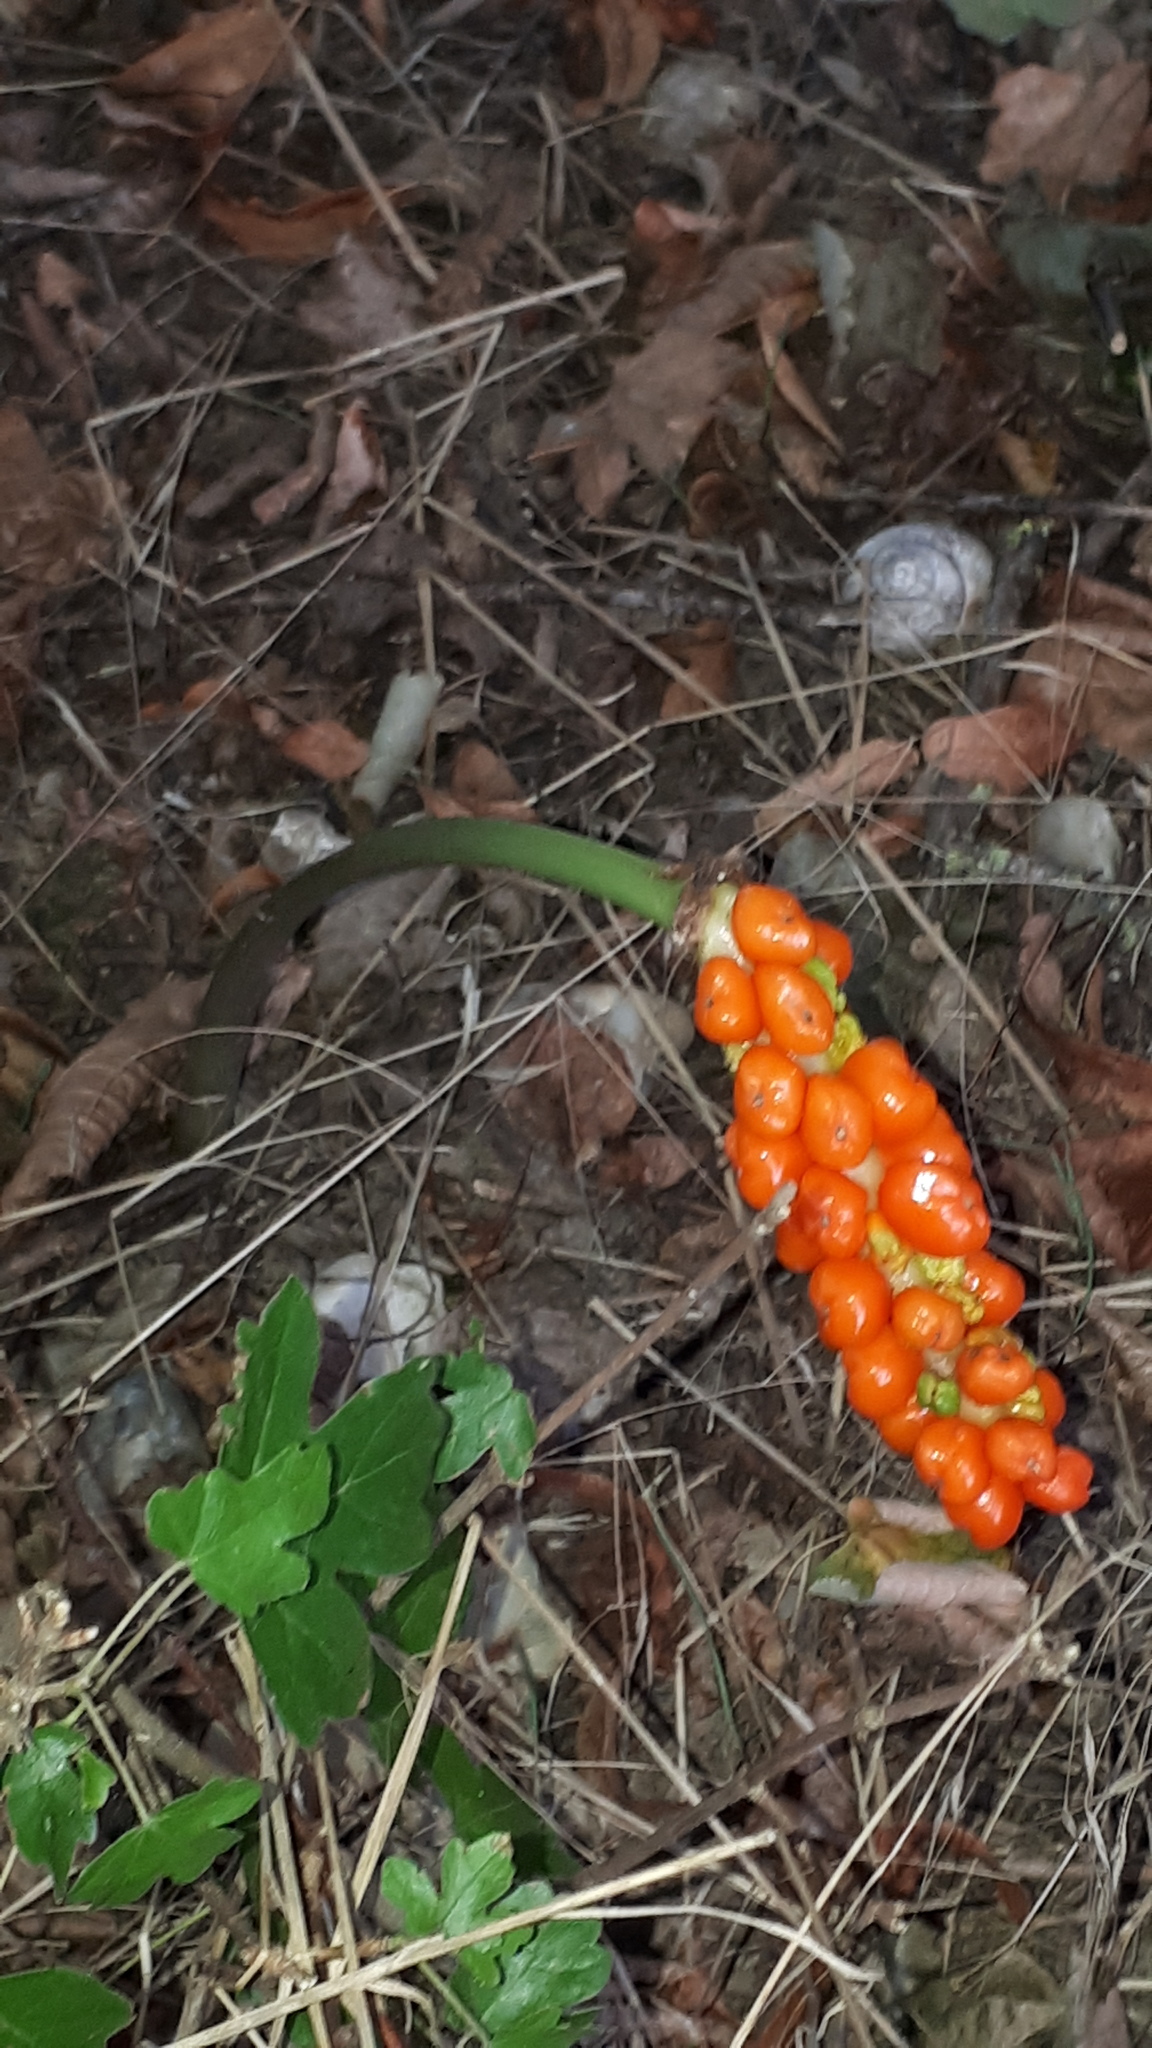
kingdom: Plantae
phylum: Tracheophyta
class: Liliopsida
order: Alismatales
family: Araceae
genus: Arum
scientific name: Arum maculatum
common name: Lords-and-ladies
